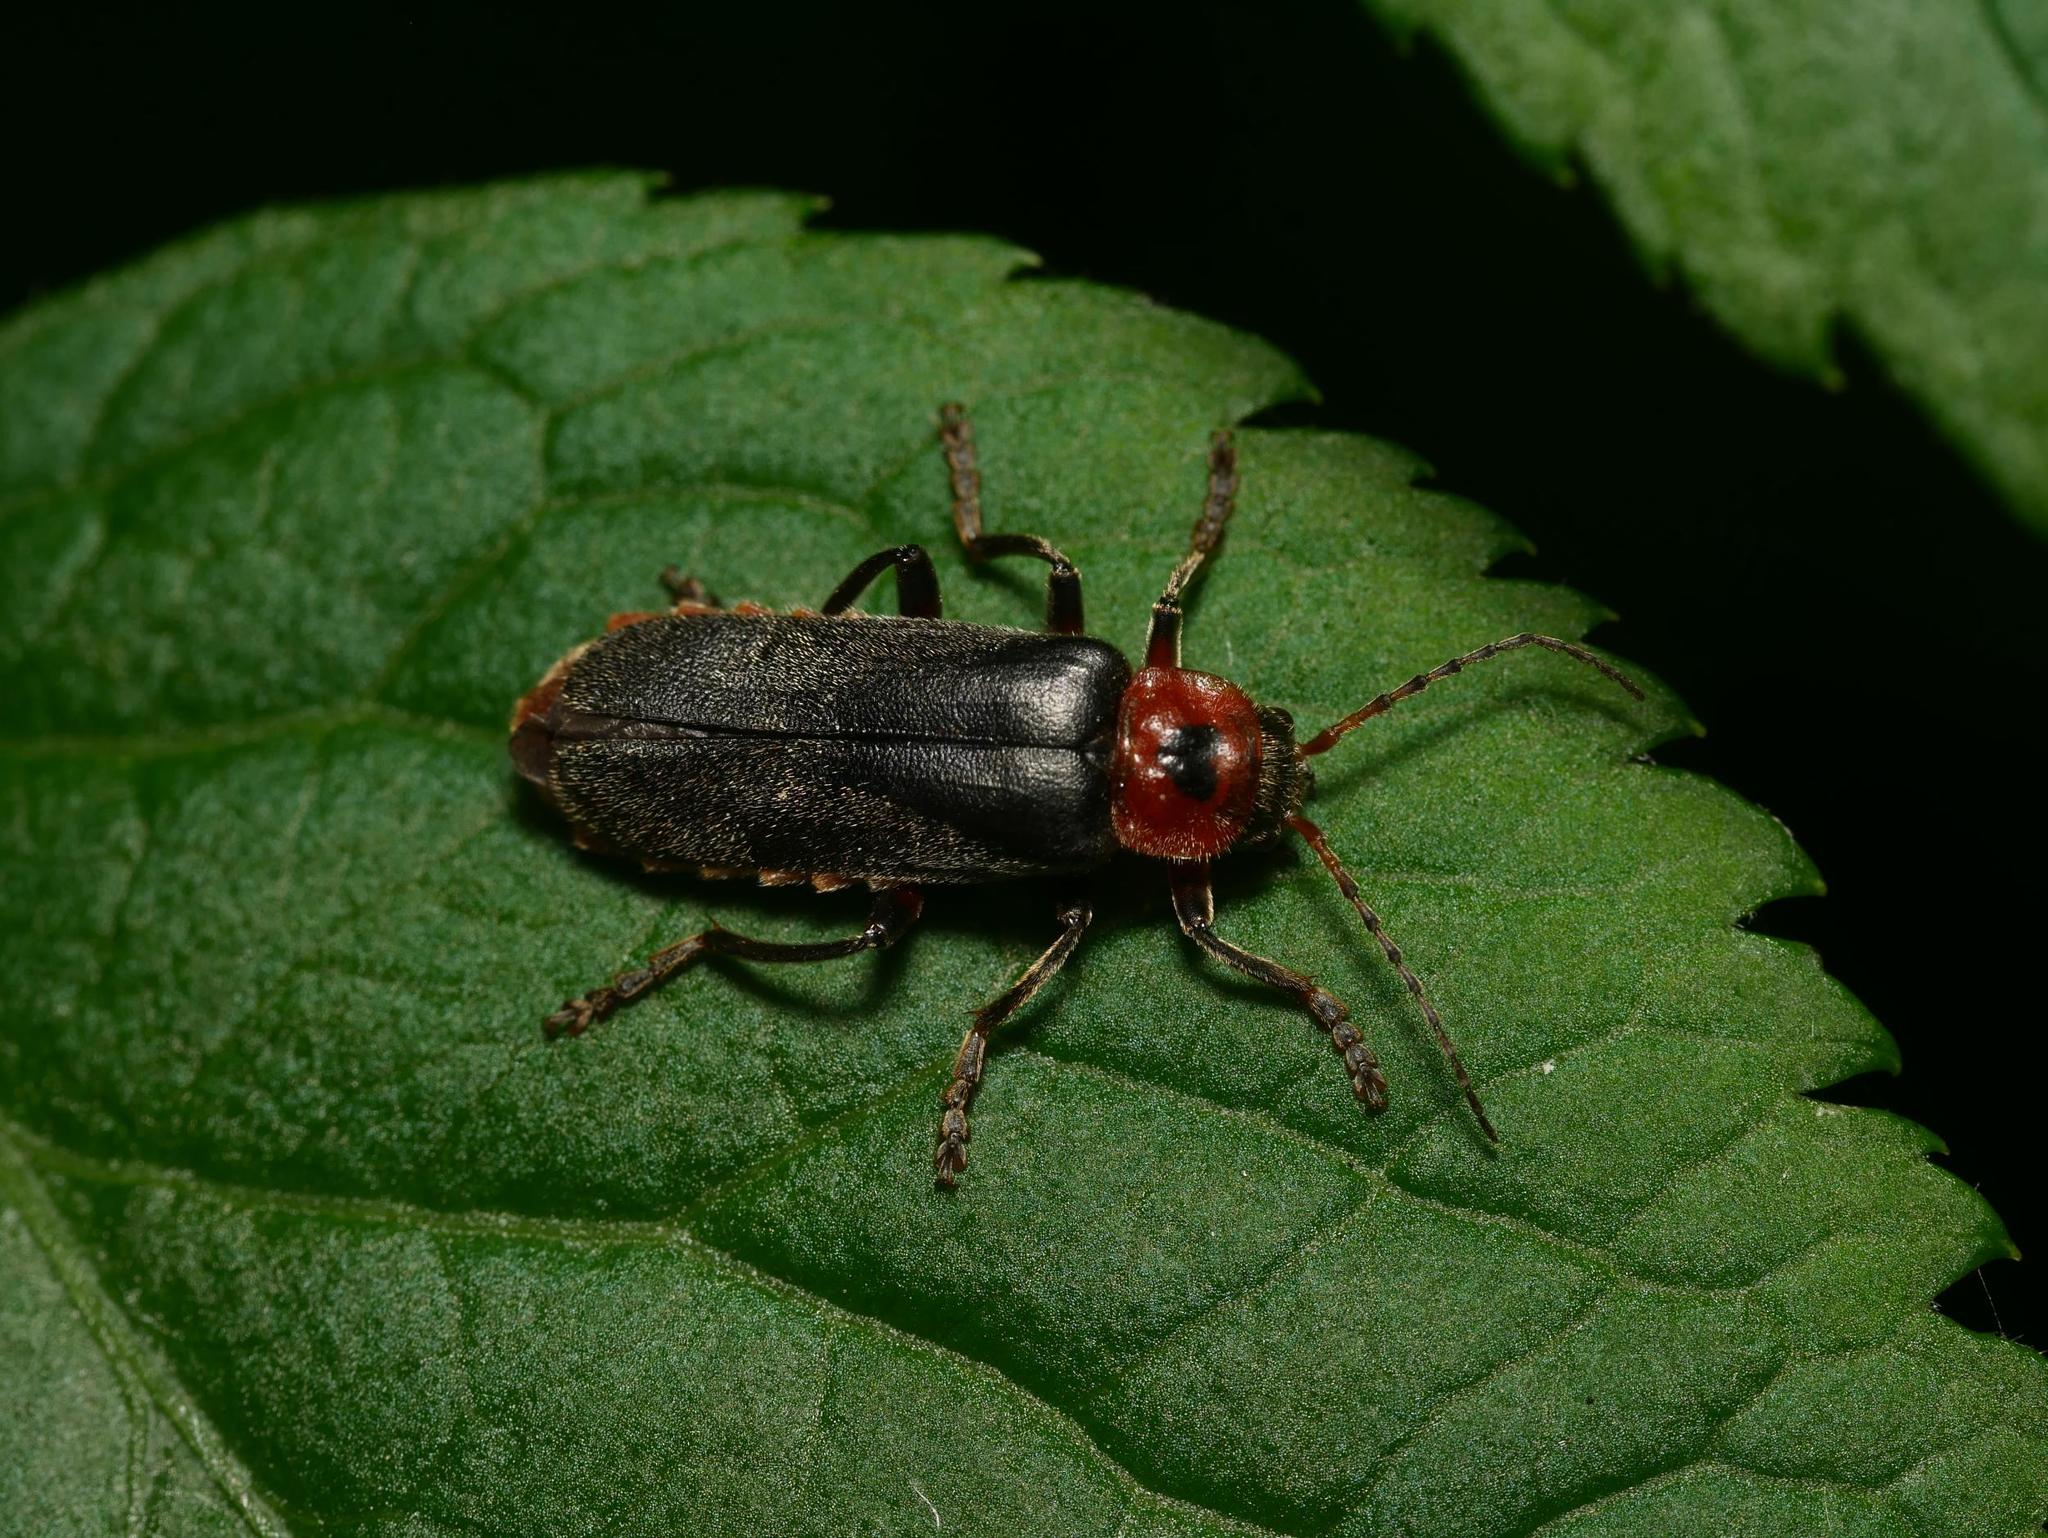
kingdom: Animalia
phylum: Arthropoda
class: Insecta
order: Coleoptera
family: Cantharidae
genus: Cantharis
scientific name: Cantharis rustica
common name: Soldier beetle
